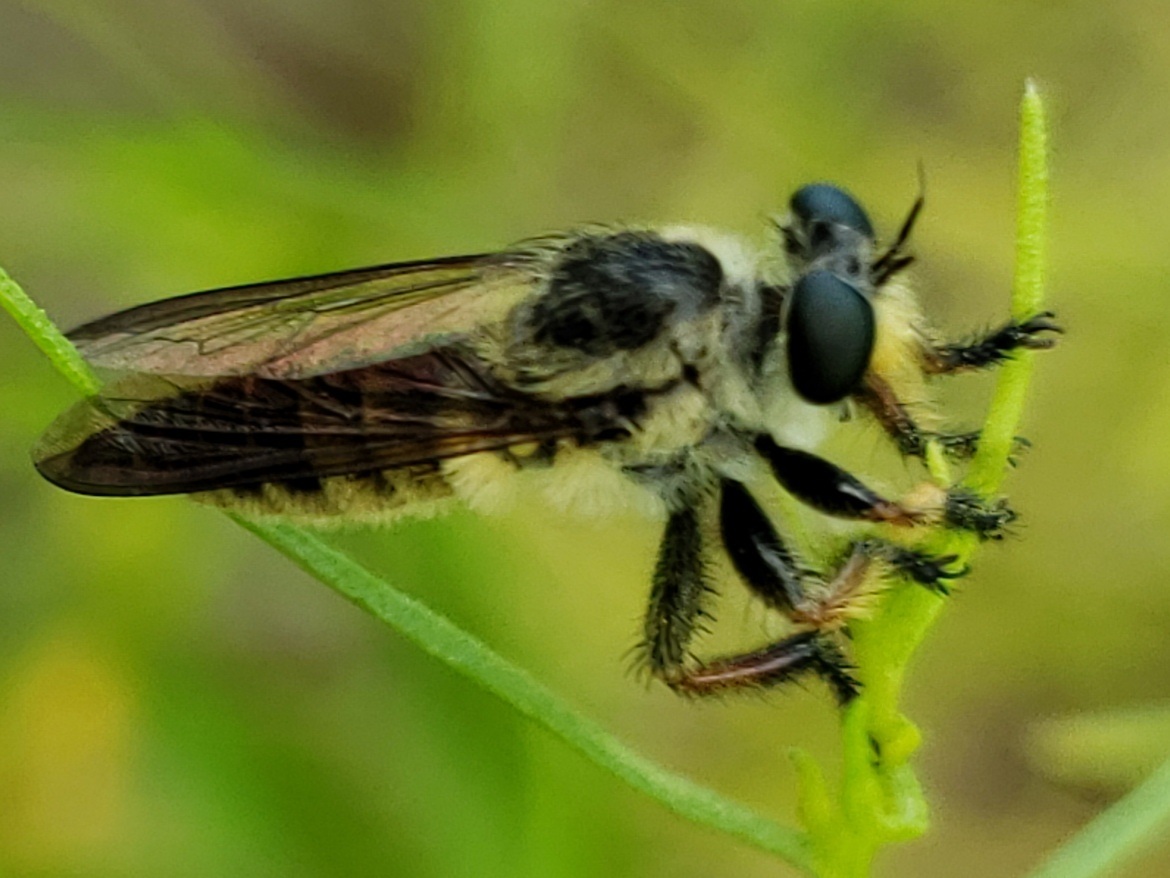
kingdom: Animalia
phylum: Arthropoda
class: Insecta
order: Diptera
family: Asilidae
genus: Megaphorus
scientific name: Megaphorus minutus
